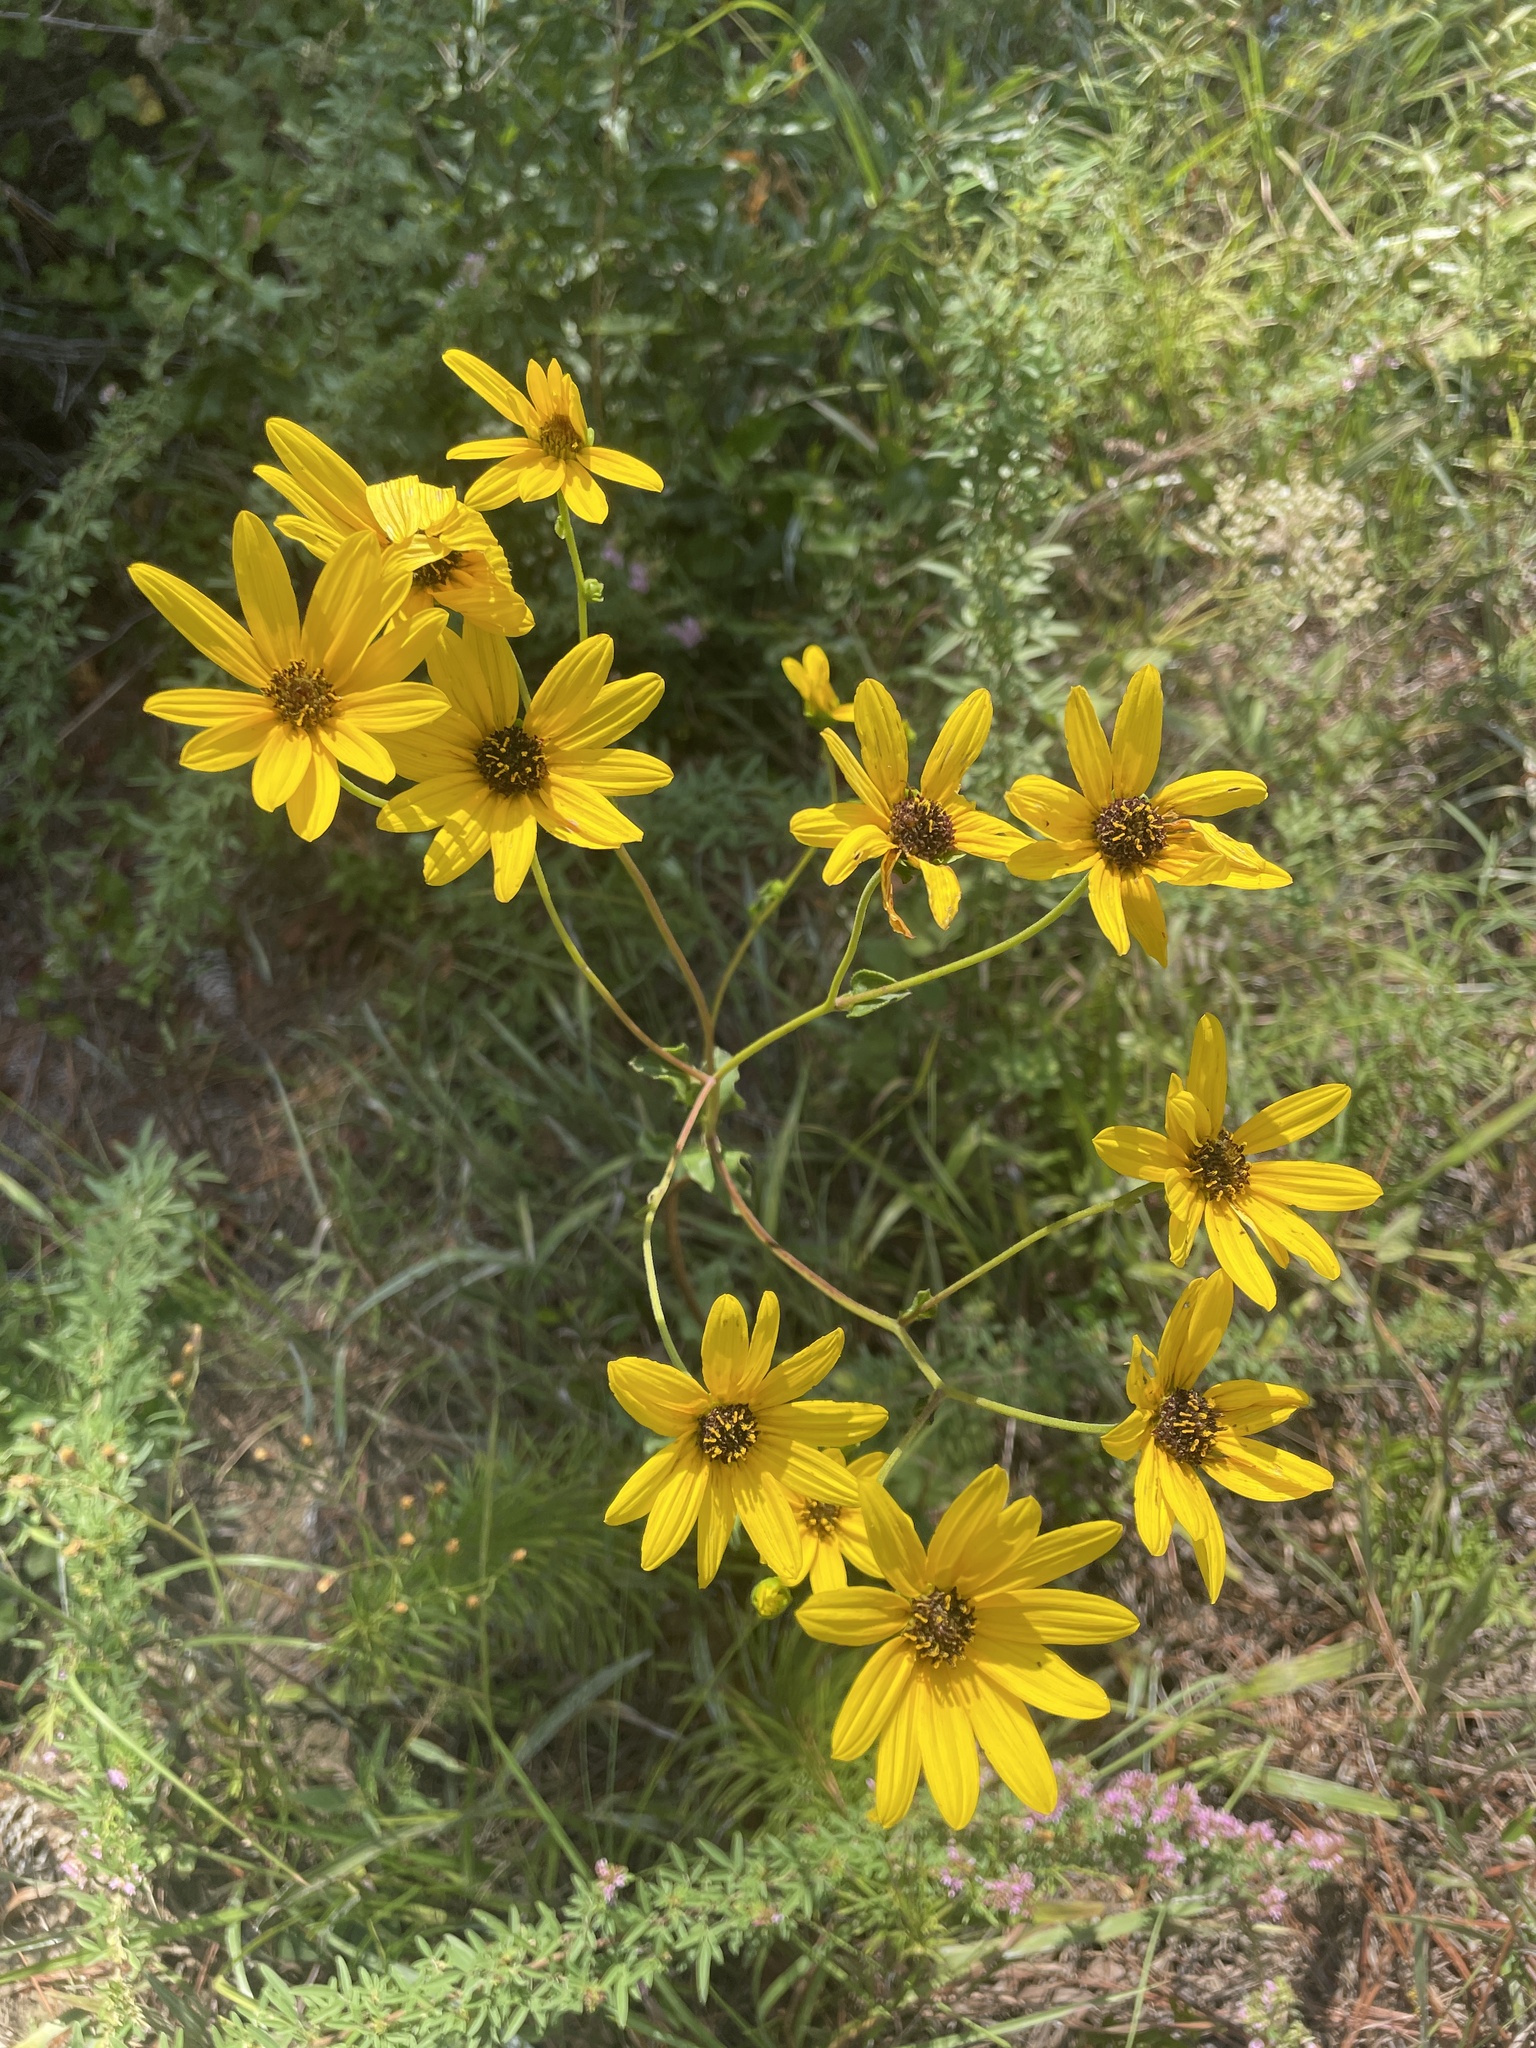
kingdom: Plantae
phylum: Tracheophyta
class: Magnoliopsida
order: Asterales
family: Asteraceae
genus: Helianthus
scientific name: Helianthus atrorubens
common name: Dark-eyed sunflower
